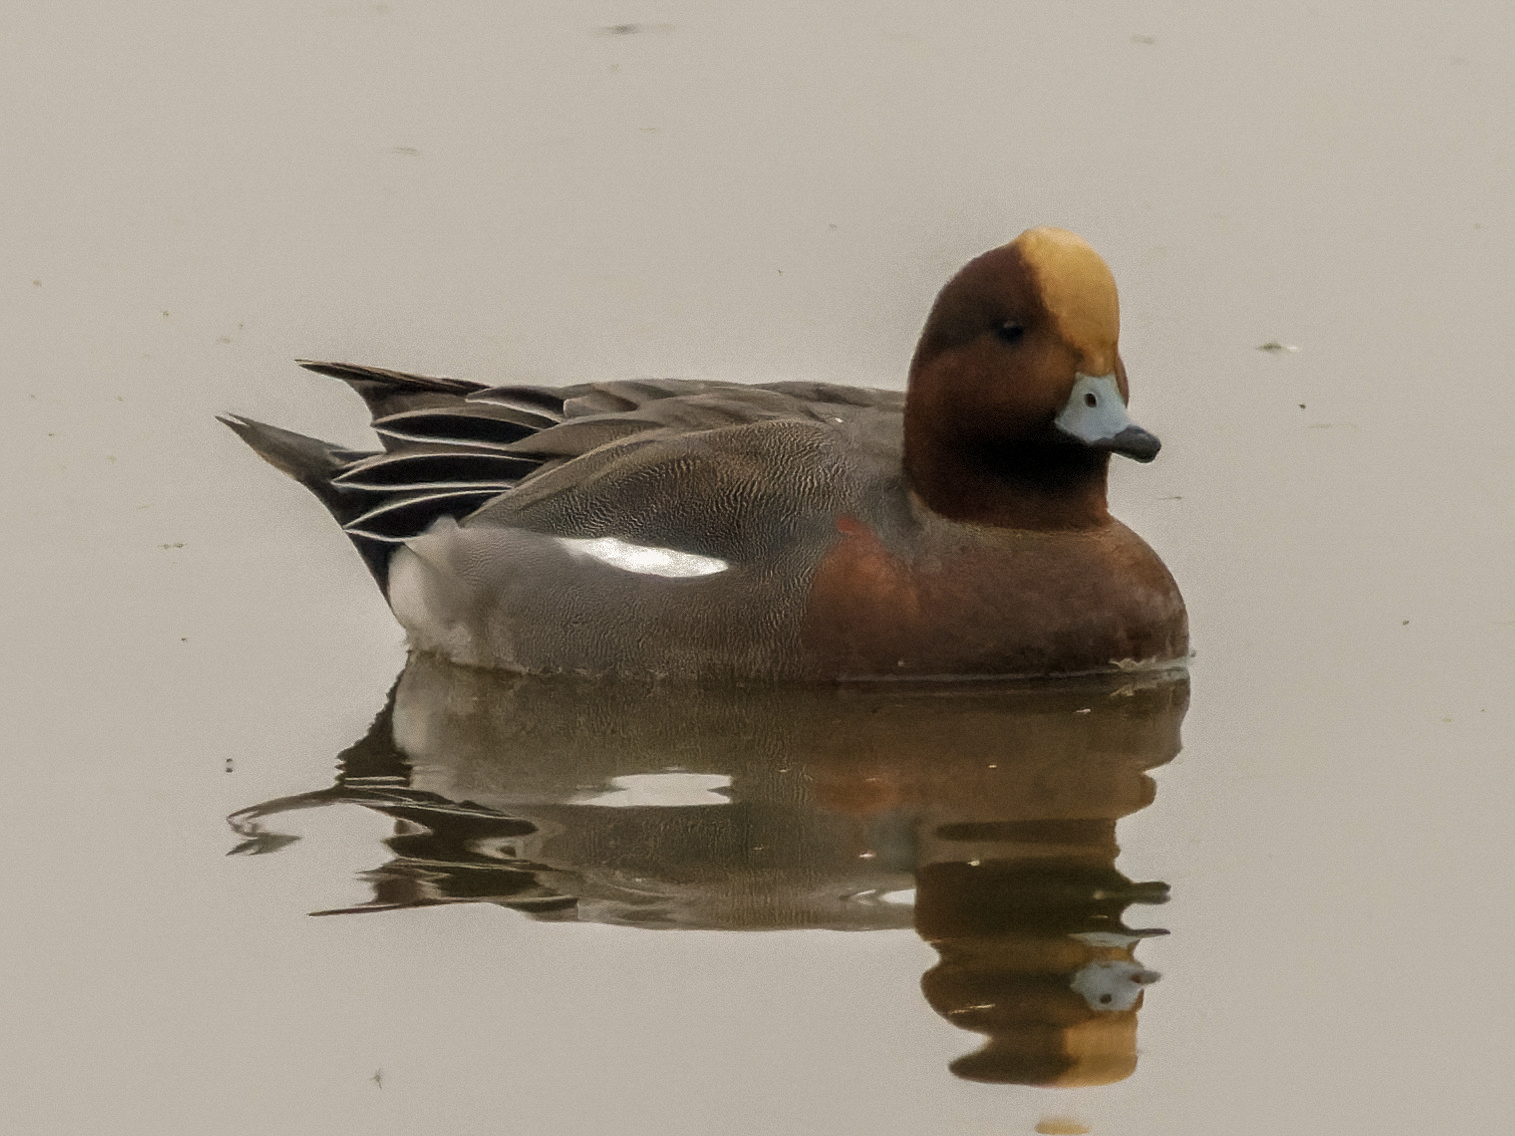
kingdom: Animalia
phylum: Chordata
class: Aves
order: Anseriformes
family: Anatidae
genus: Mareca
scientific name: Mareca penelope
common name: Eurasian wigeon
